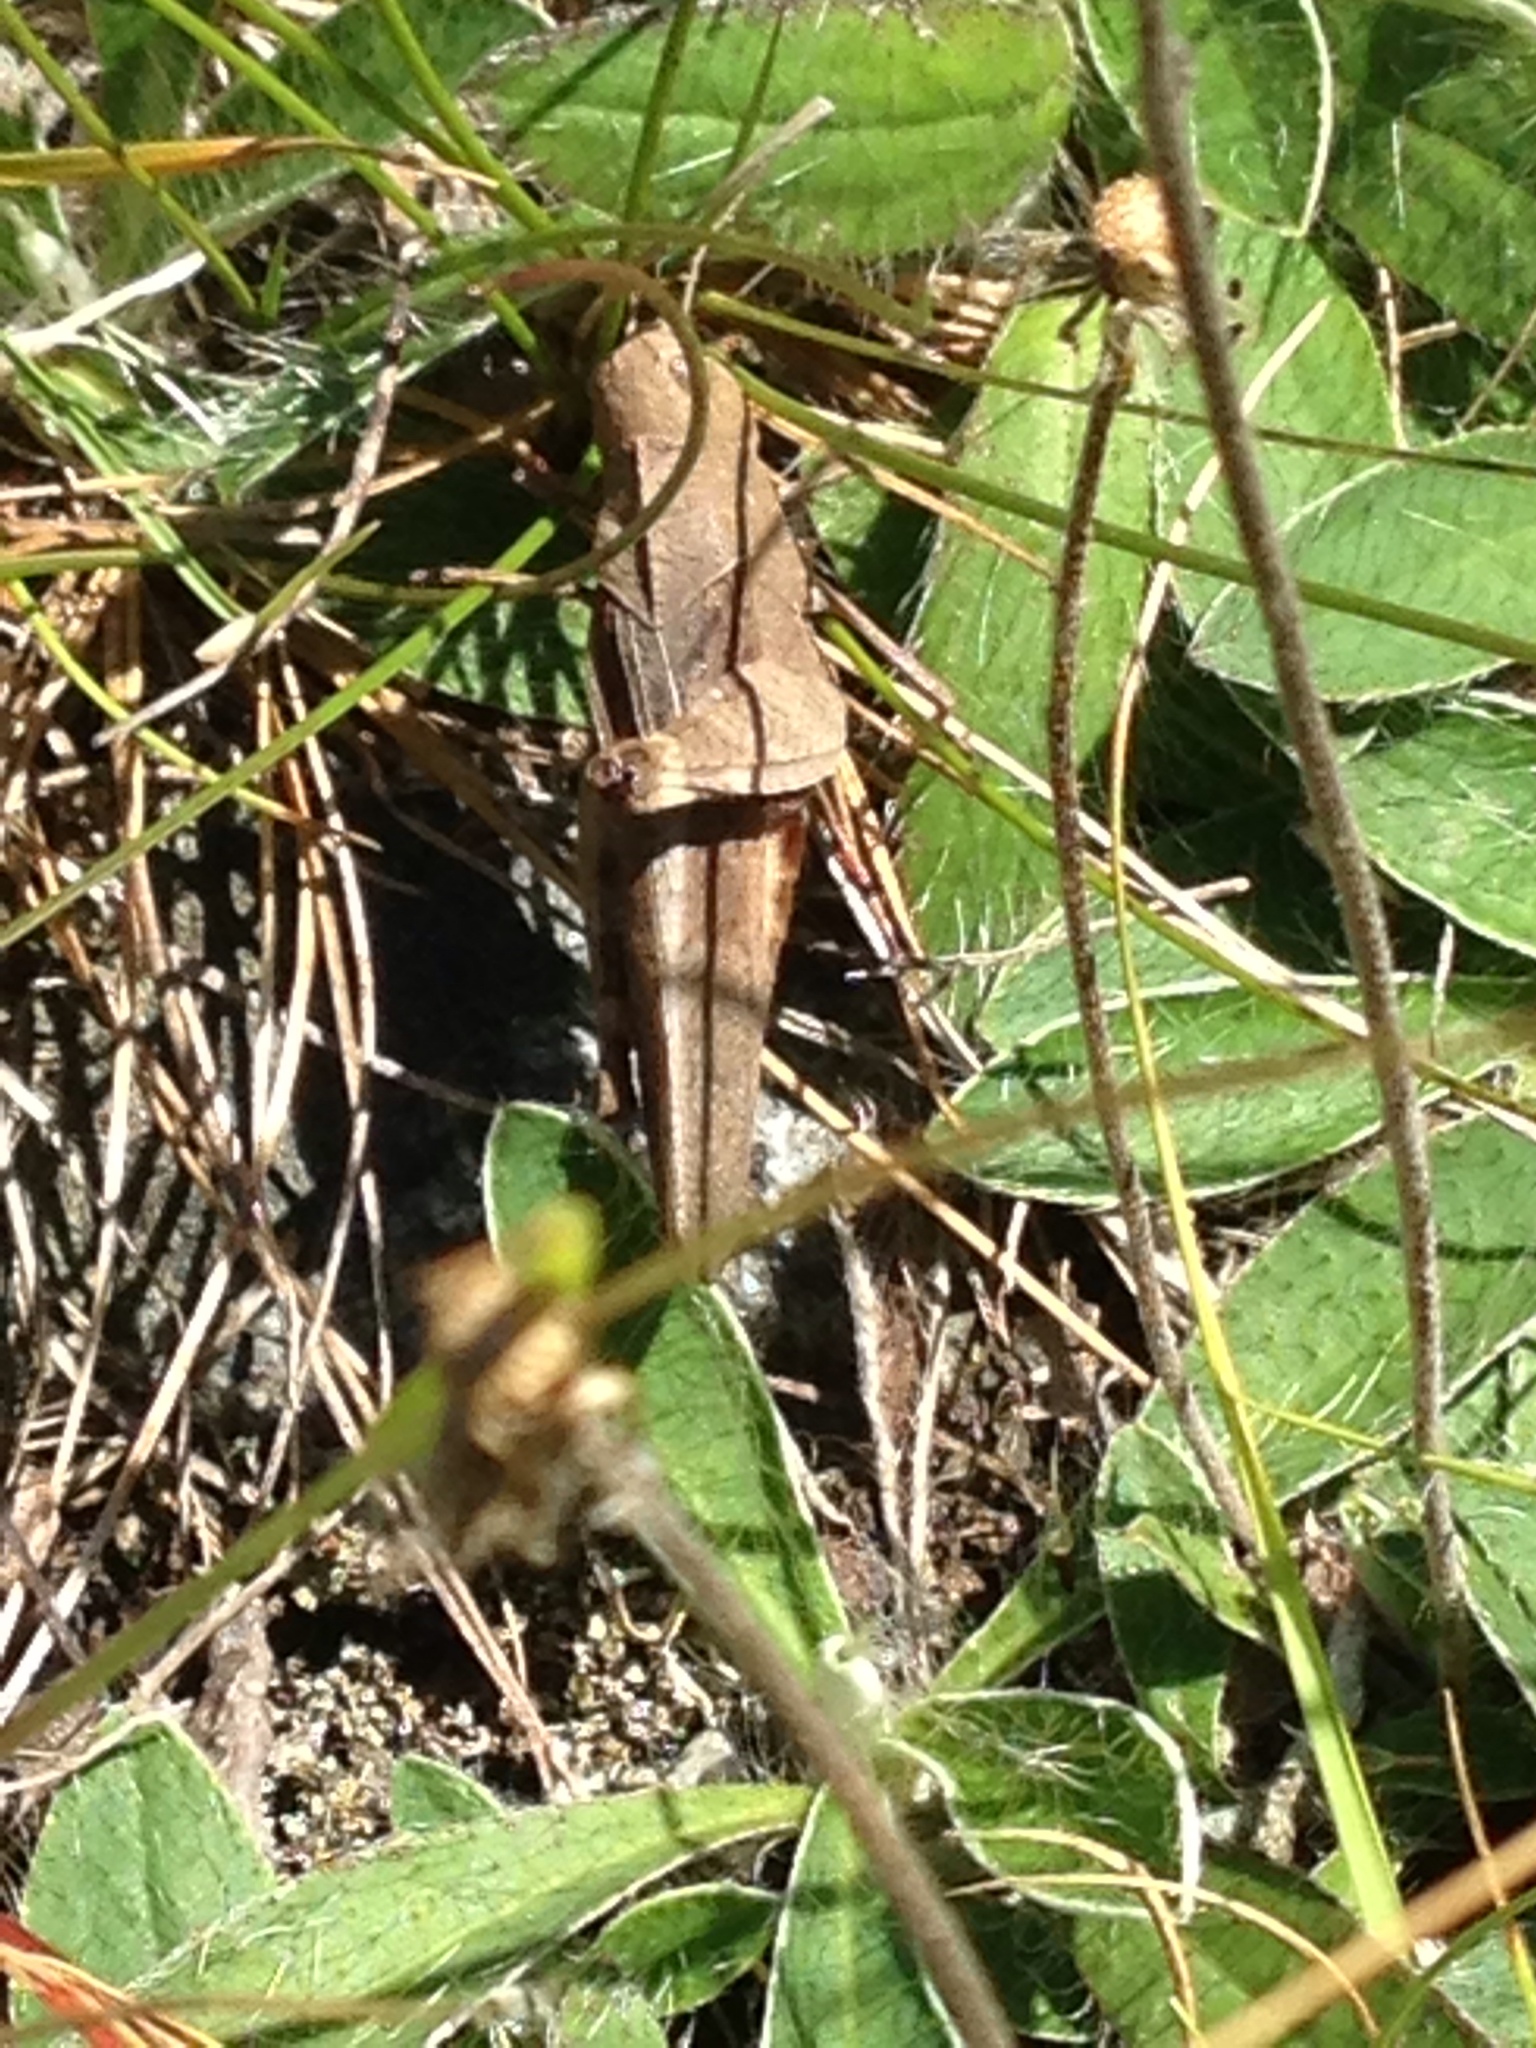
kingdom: Animalia
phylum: Arthropoda
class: Insecta
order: Orthoptera
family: Acrididae
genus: Arphia
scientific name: Arphia sulphurea
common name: Spring yellow-winged locust
